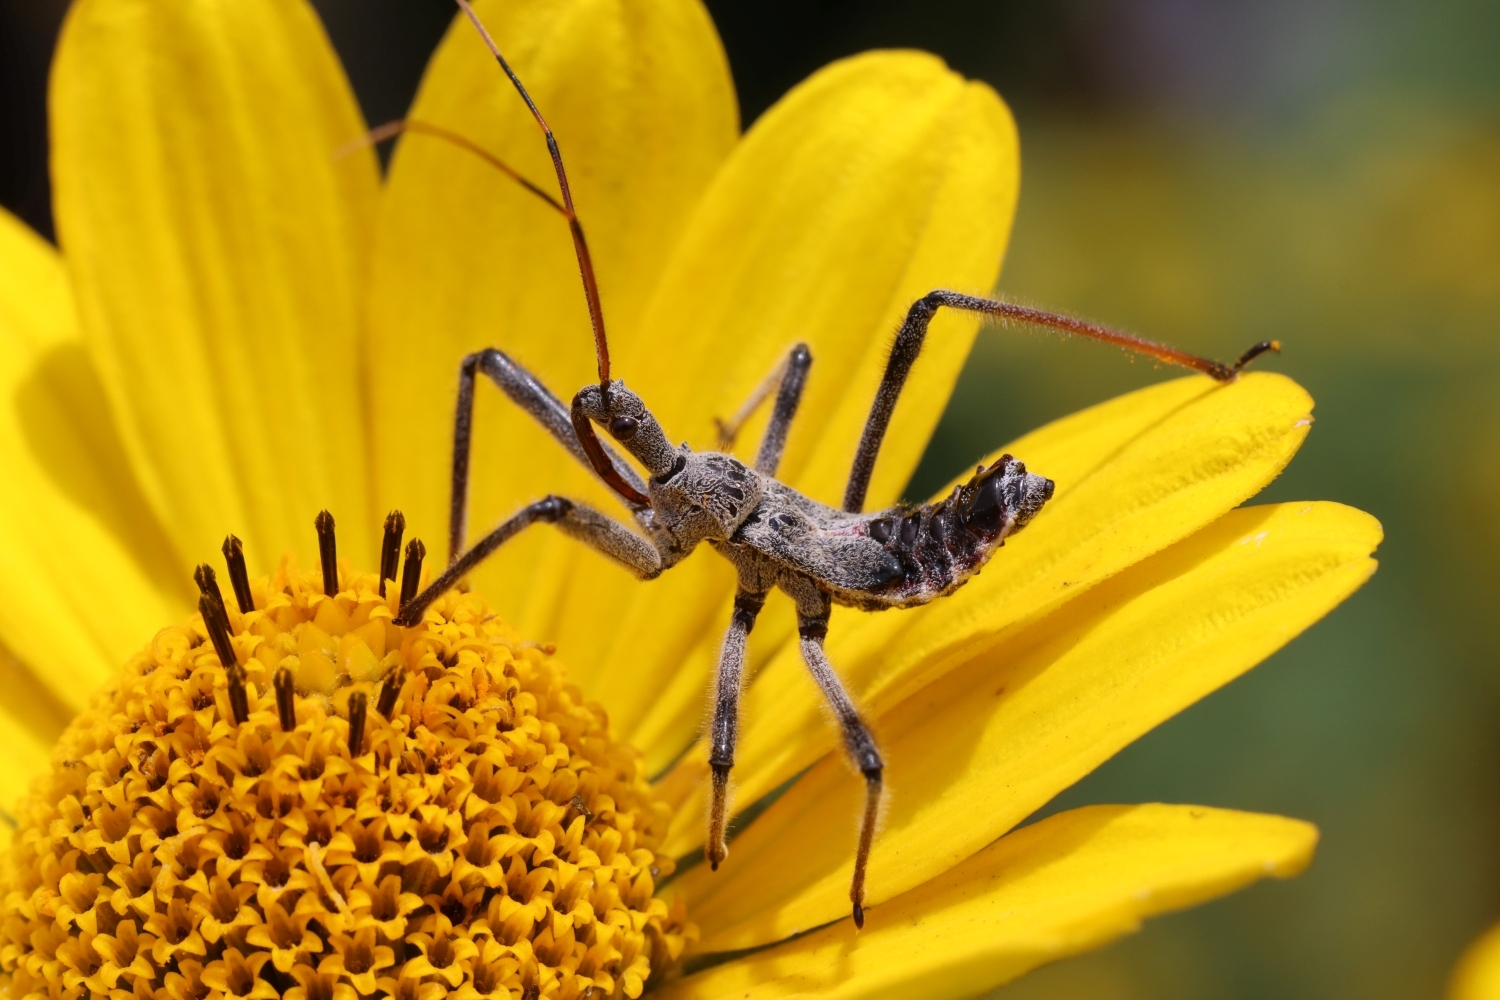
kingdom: Animalia
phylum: Arthropoda
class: Insecta
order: Hemiptera
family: Reduviidae
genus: Arilus
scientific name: Arilus cristatus
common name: North american wheel bug
